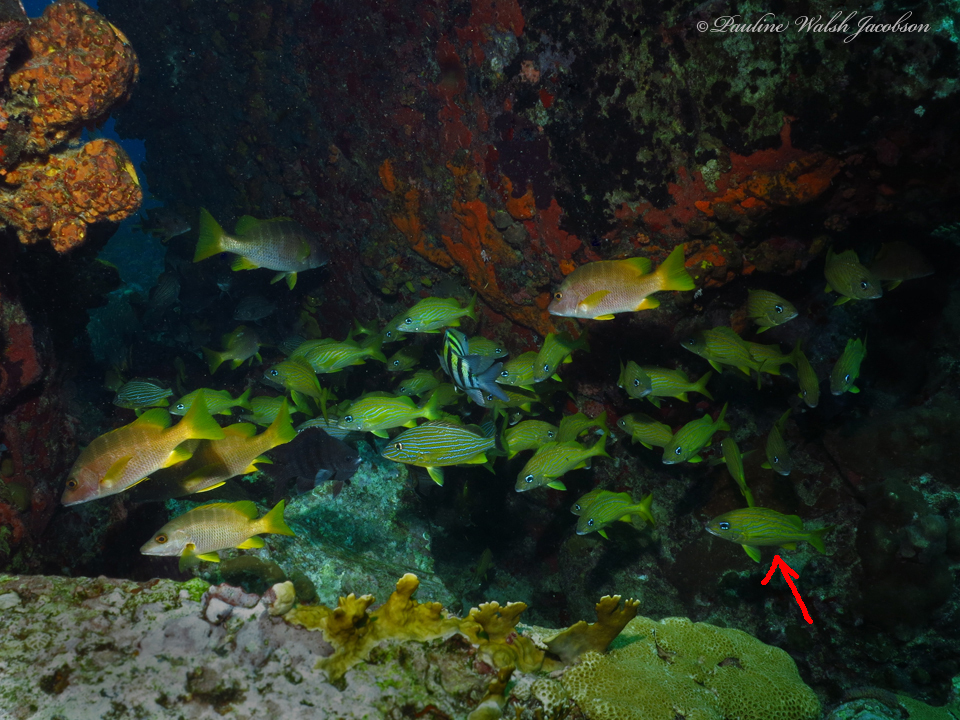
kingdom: Animalia
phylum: Chordata
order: Perciformes
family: Haemulidae
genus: Haemulon
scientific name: Haemulon flavolineatum
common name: French grunt
